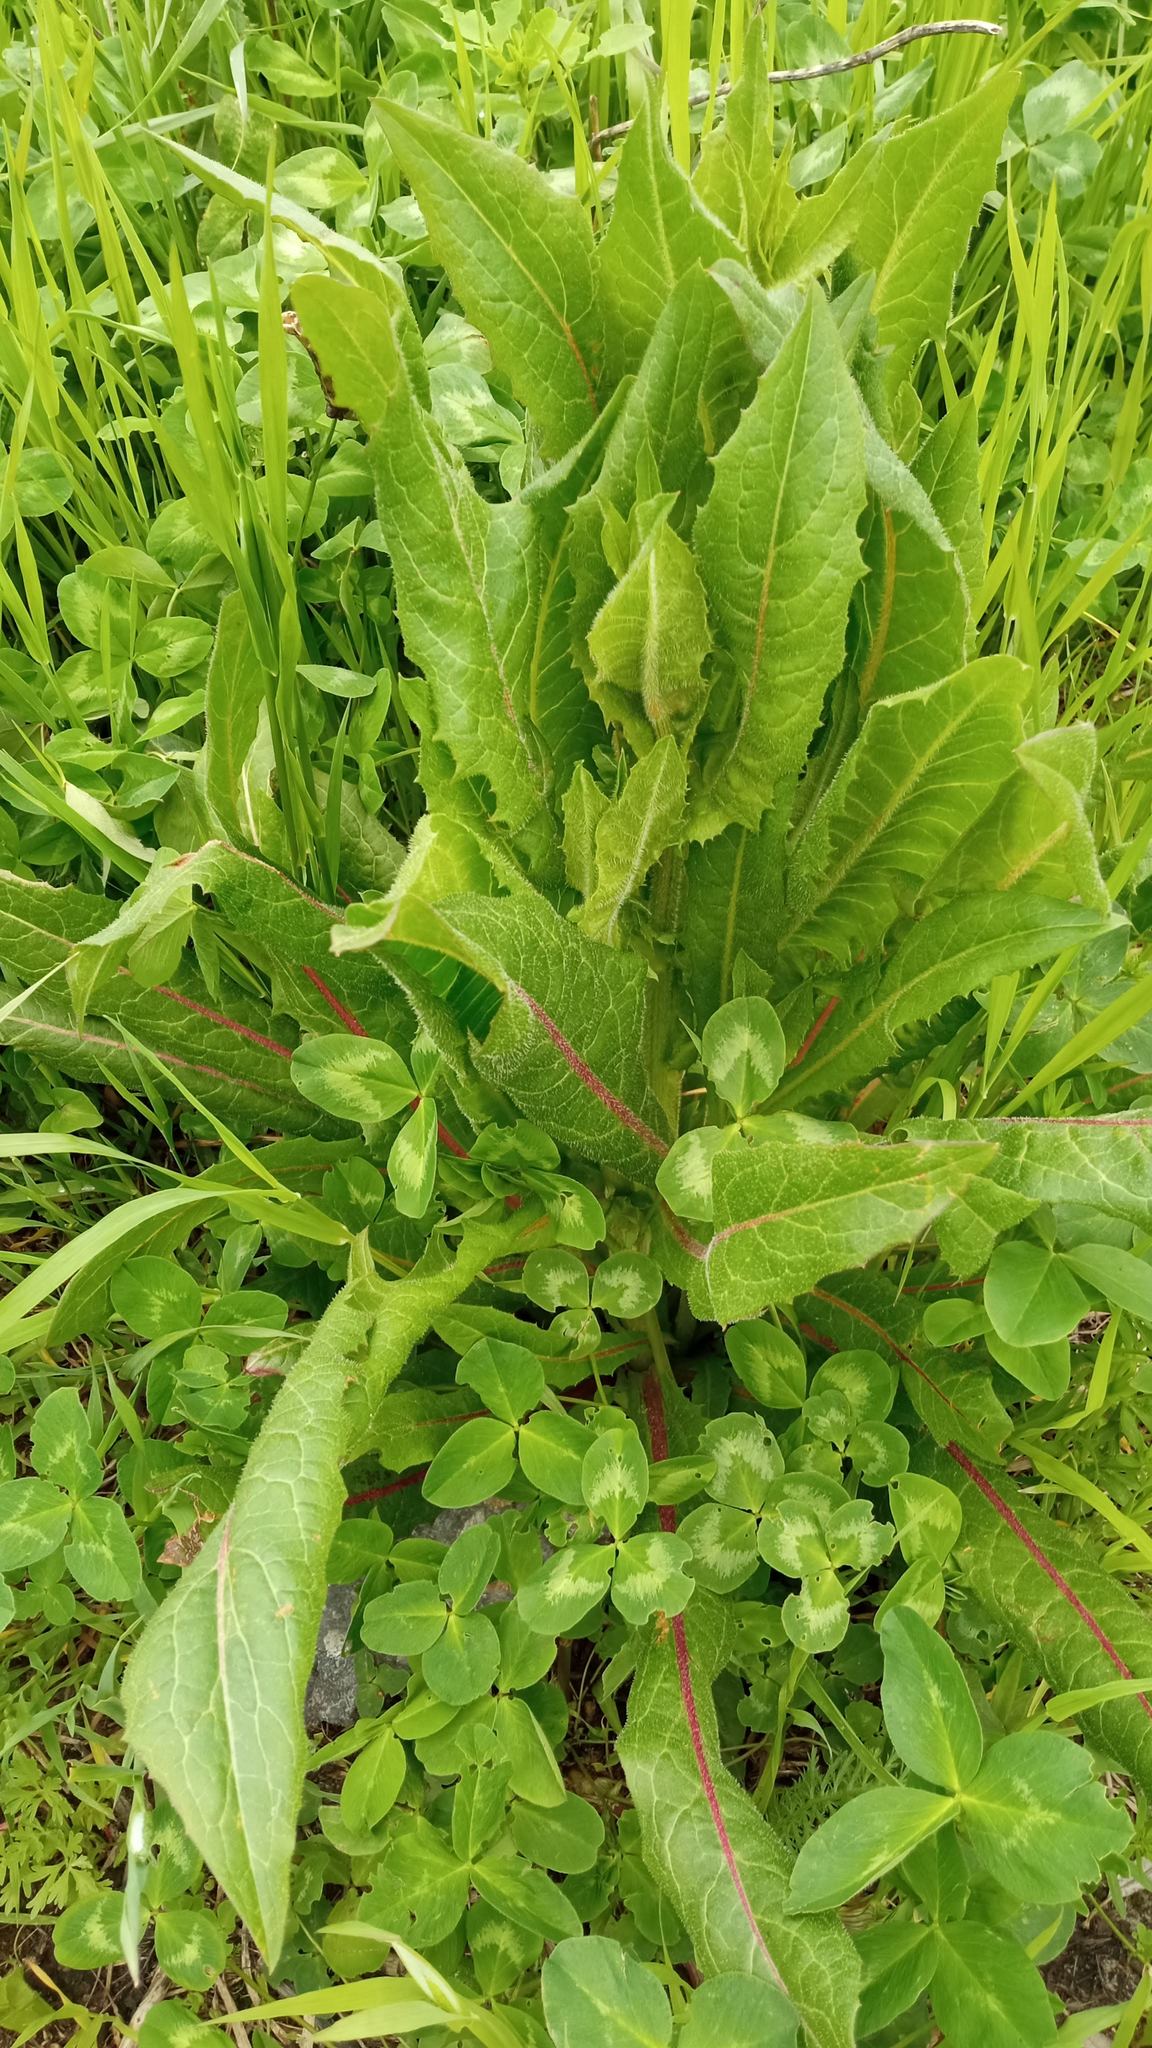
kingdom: Plantae
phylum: Tracheophyta
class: Magnoliopsida
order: Asterales
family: Asteraceae
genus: Cichorium
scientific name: Cichorium intybus
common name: Chicory
